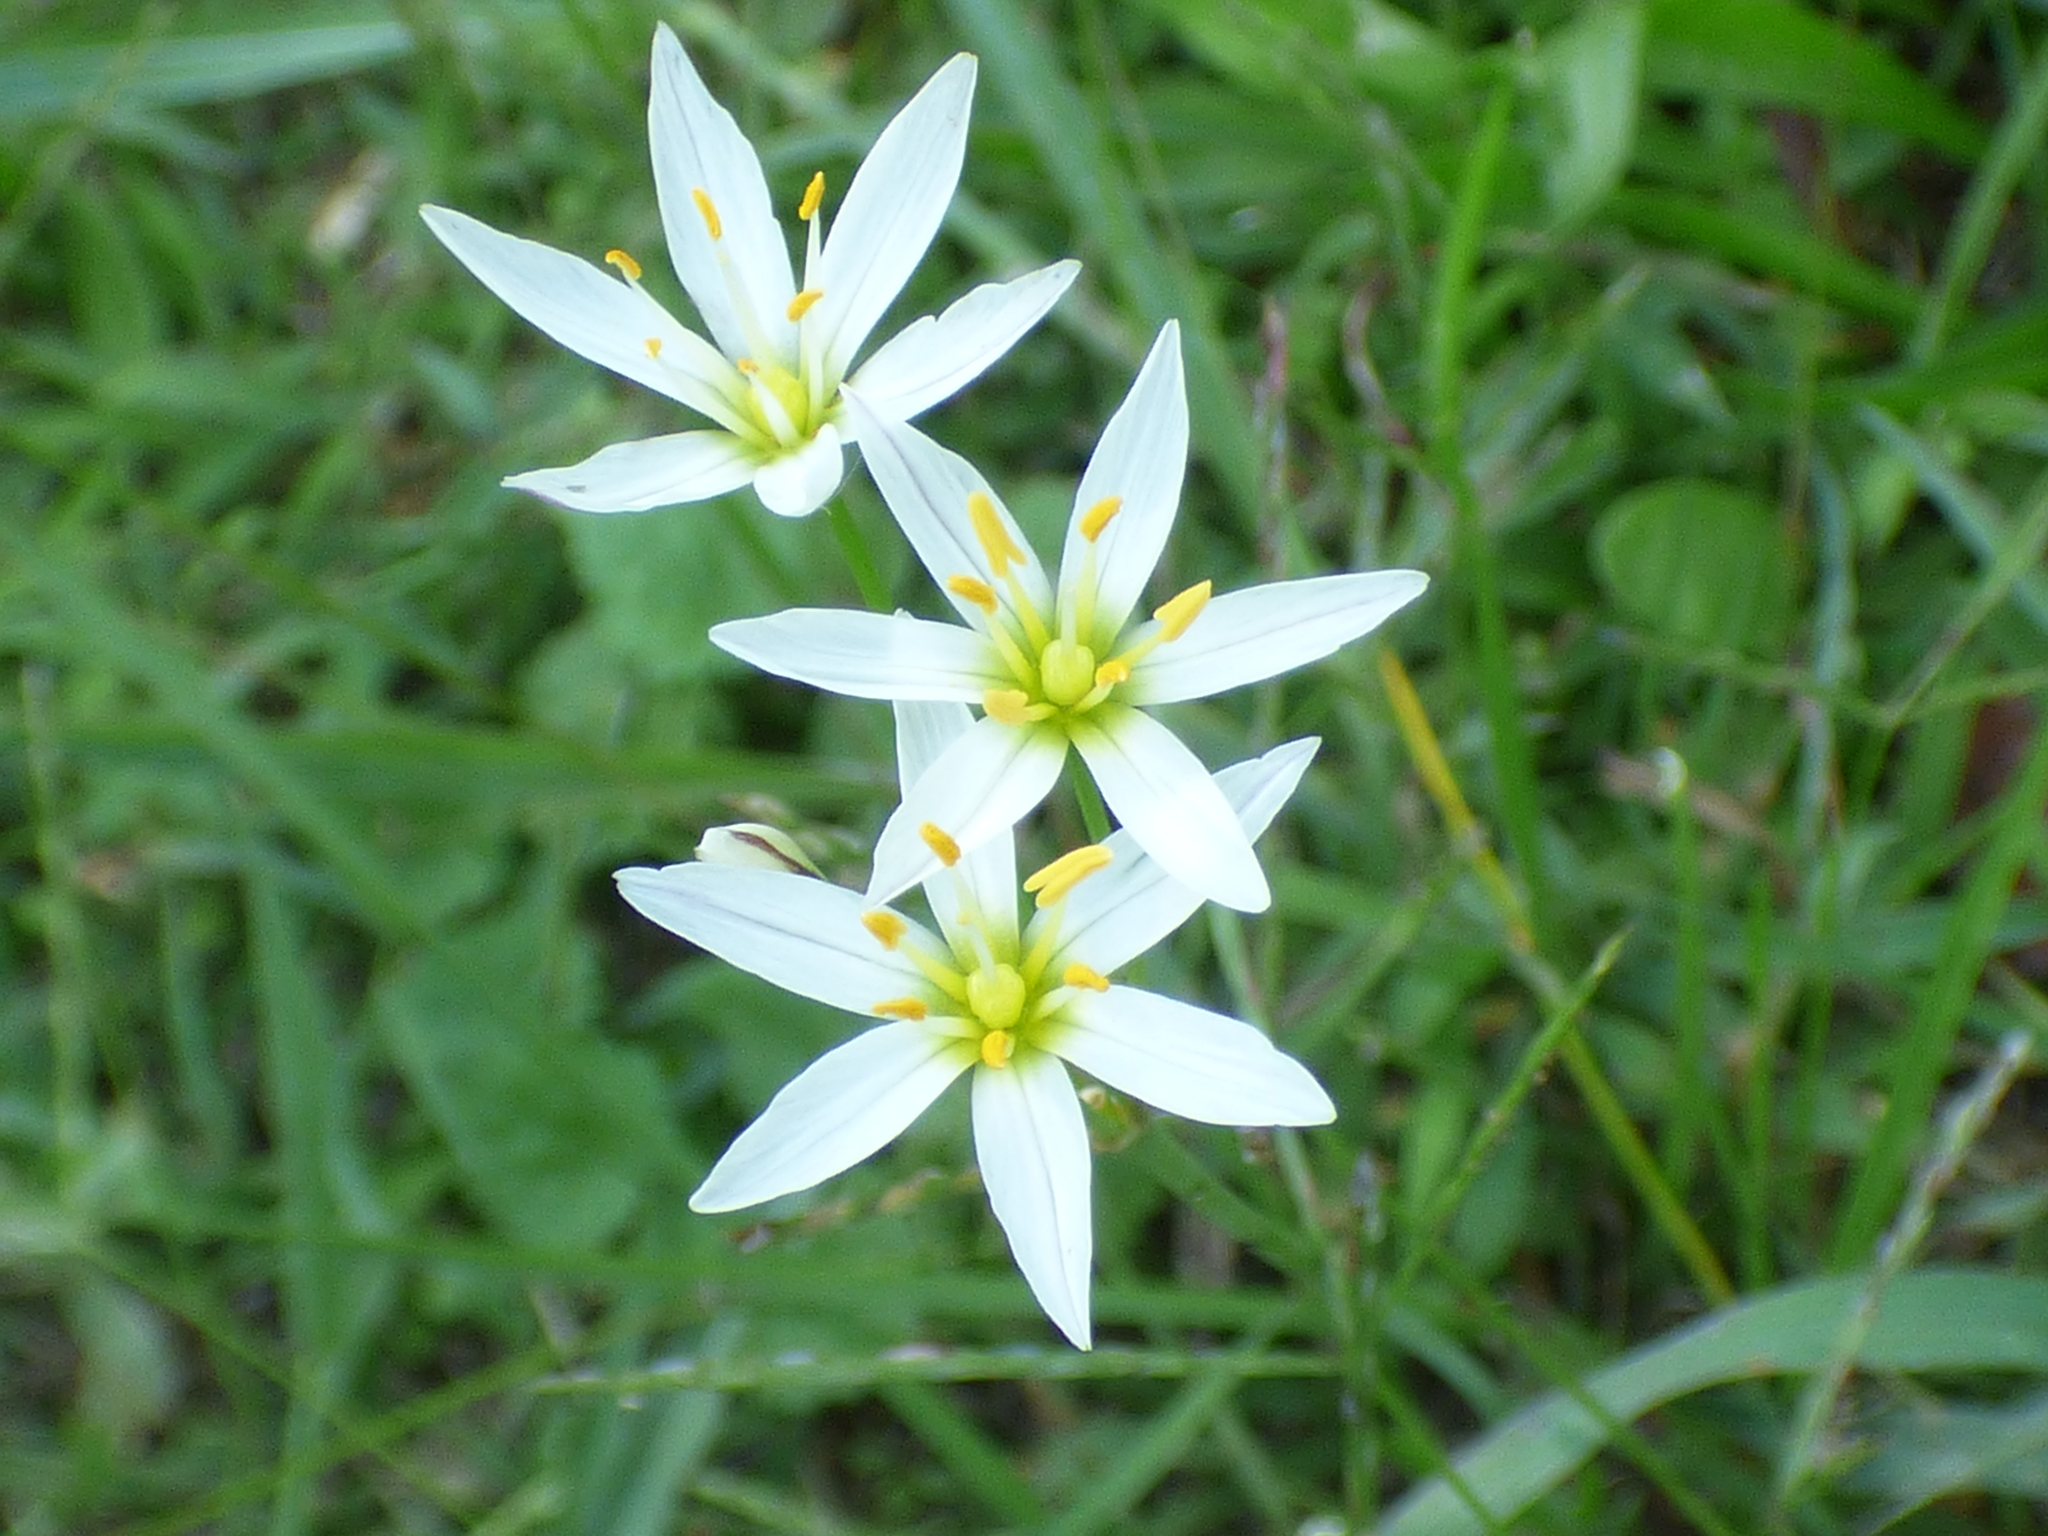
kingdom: Plantae
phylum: Tracheophyta
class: Liliopsida
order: Asparagales
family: Amaryllidaceae
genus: Nothoscordum
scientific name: Nothoscordum bivalve
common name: Crow-poison
